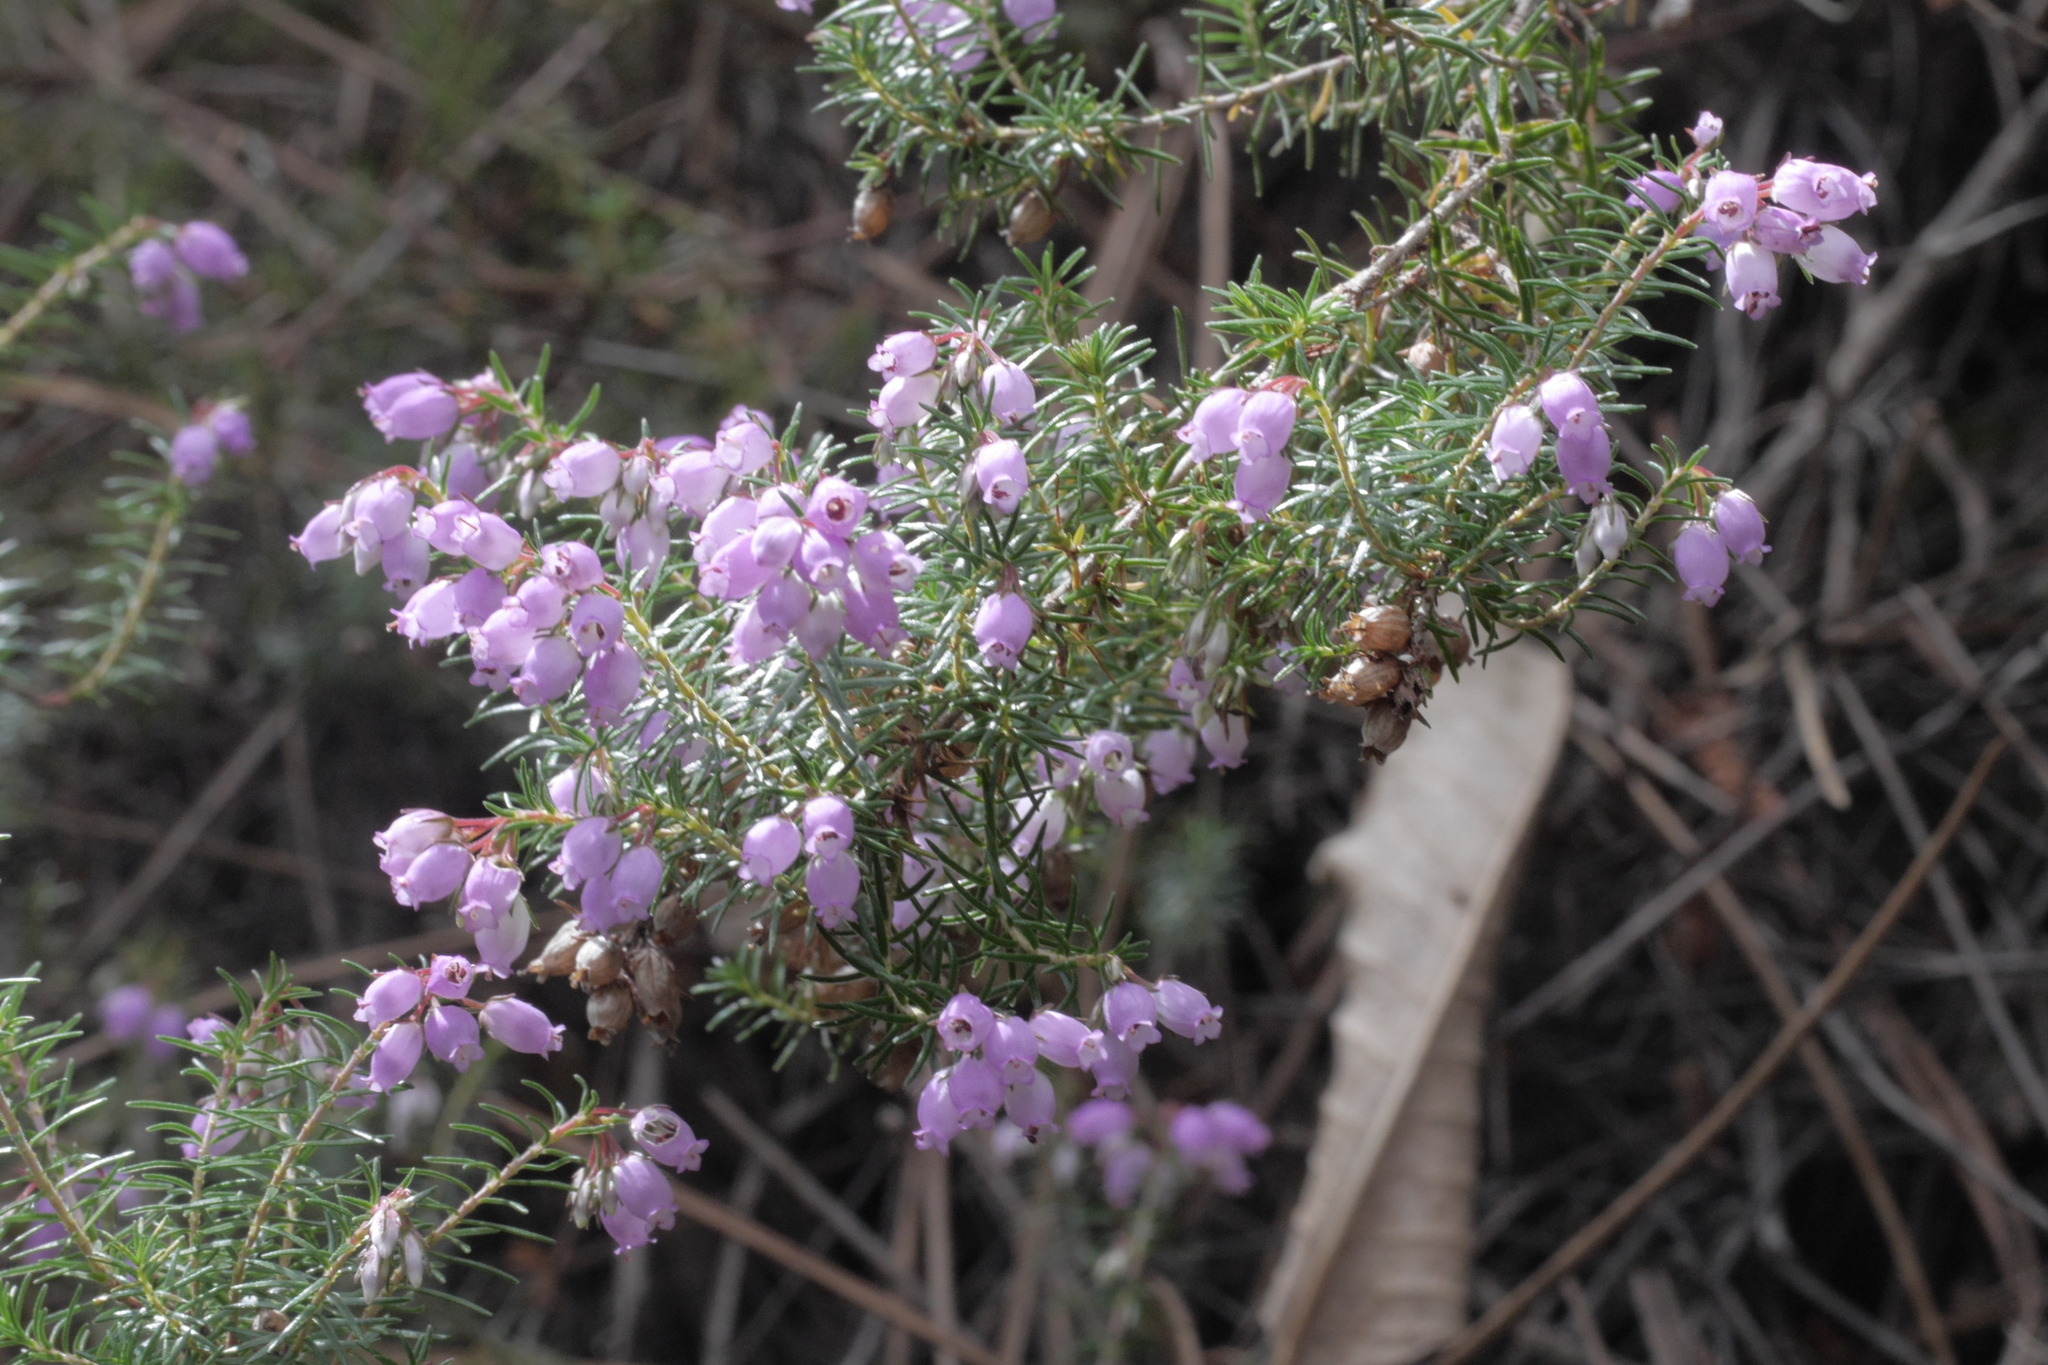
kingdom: Plantae
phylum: Tracheophyta
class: Magnoliopsida
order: Ericales
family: Ericaceae
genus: Erica
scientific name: Erica cinerea
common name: Bell heather
